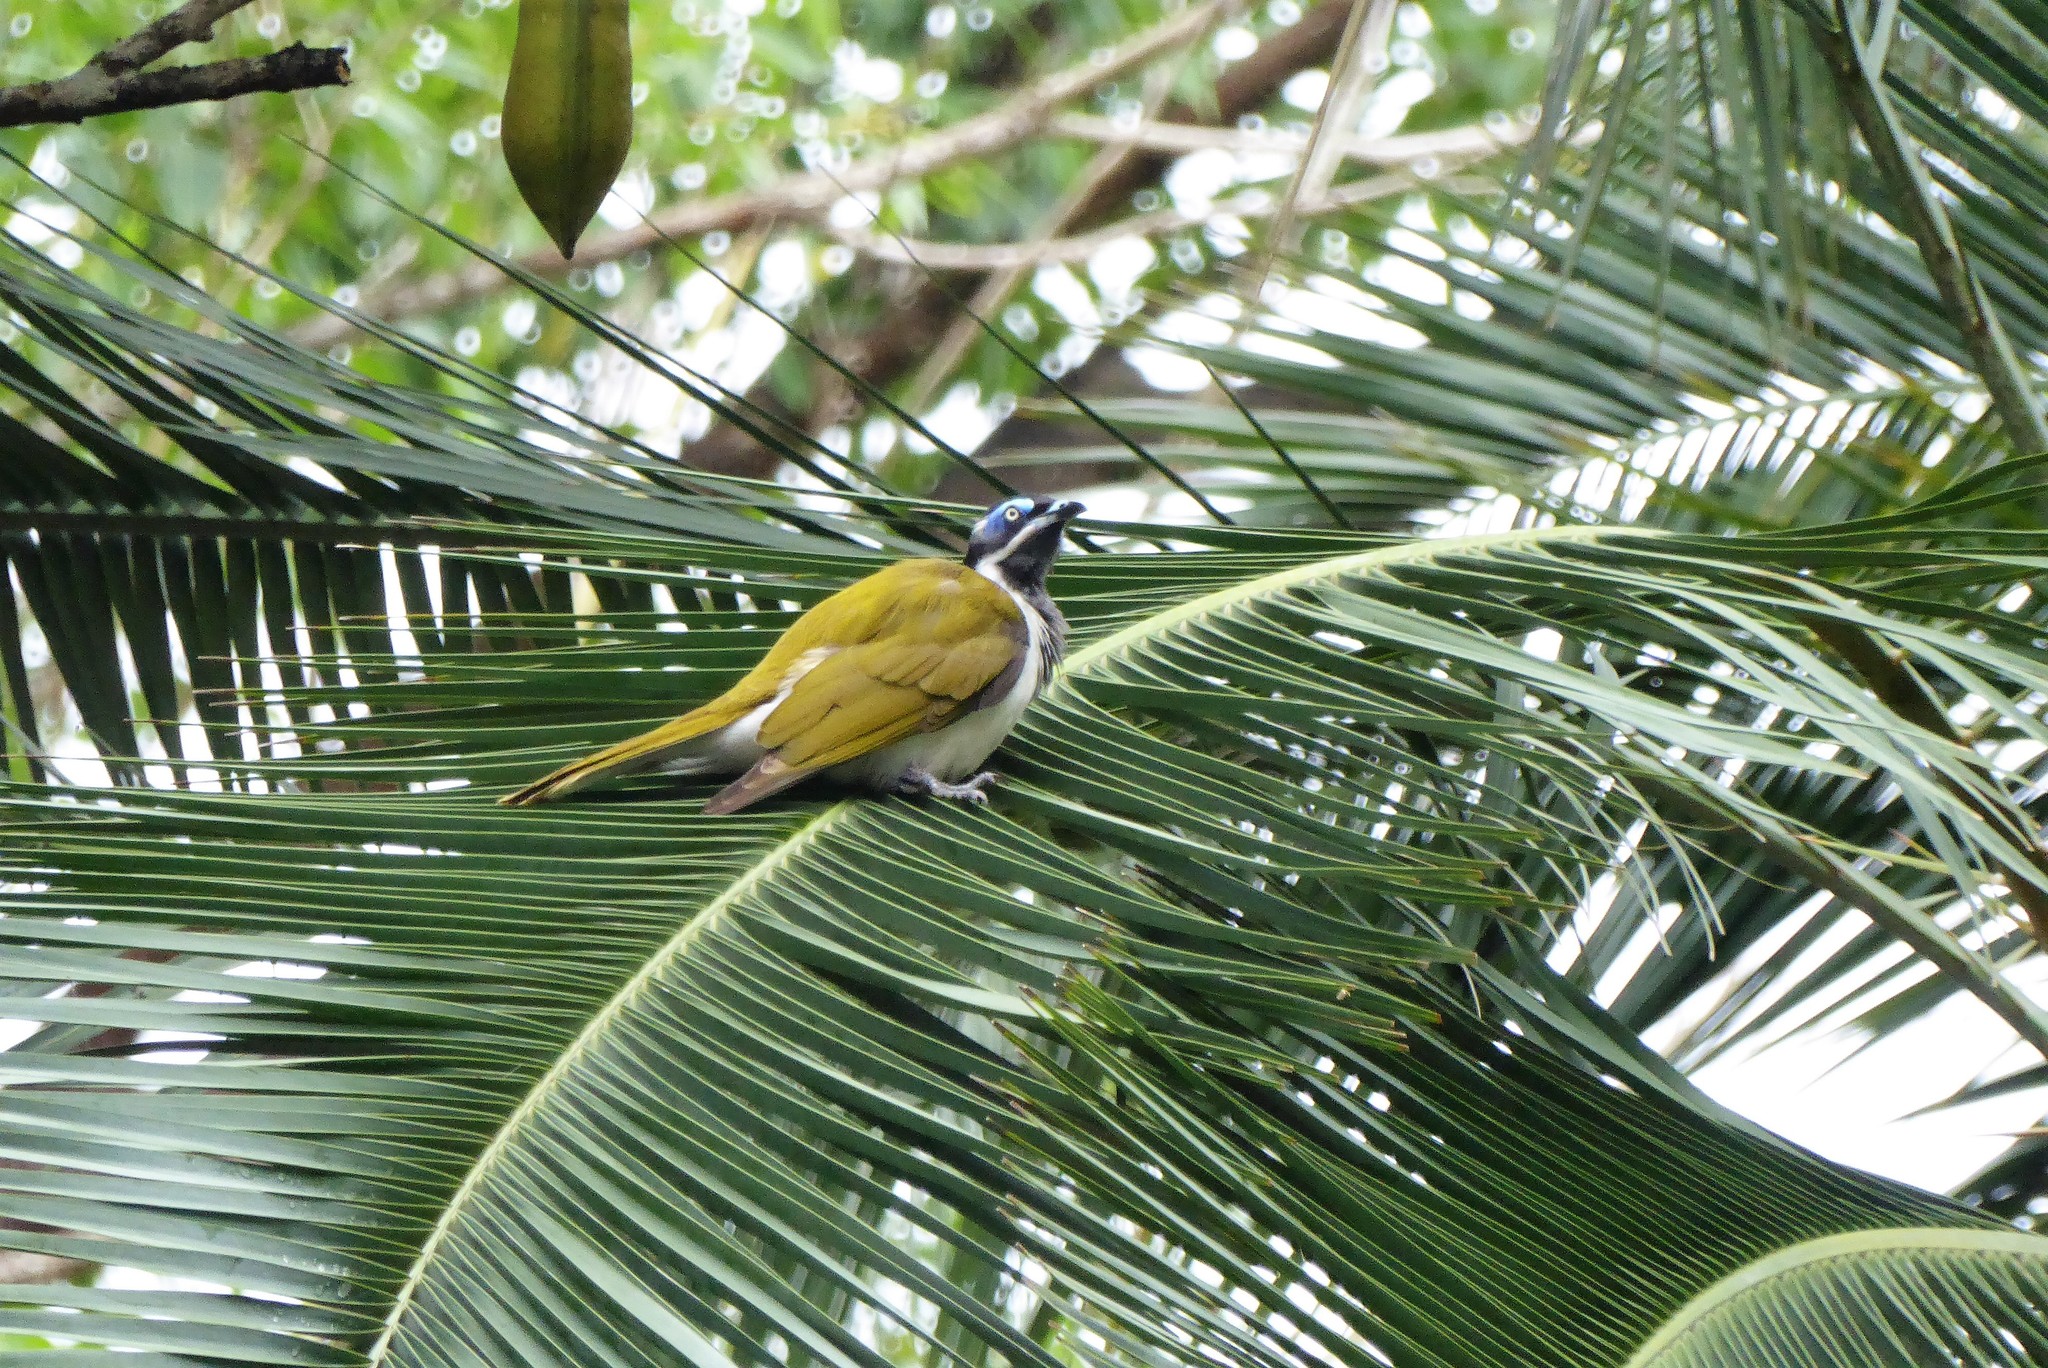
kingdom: Animalia
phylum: Chordata
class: Aves
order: Passeriformes
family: Meliphagidae
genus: Entomyzon
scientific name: Entomyzon cyanotis
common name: Blue-faced honeyeater
